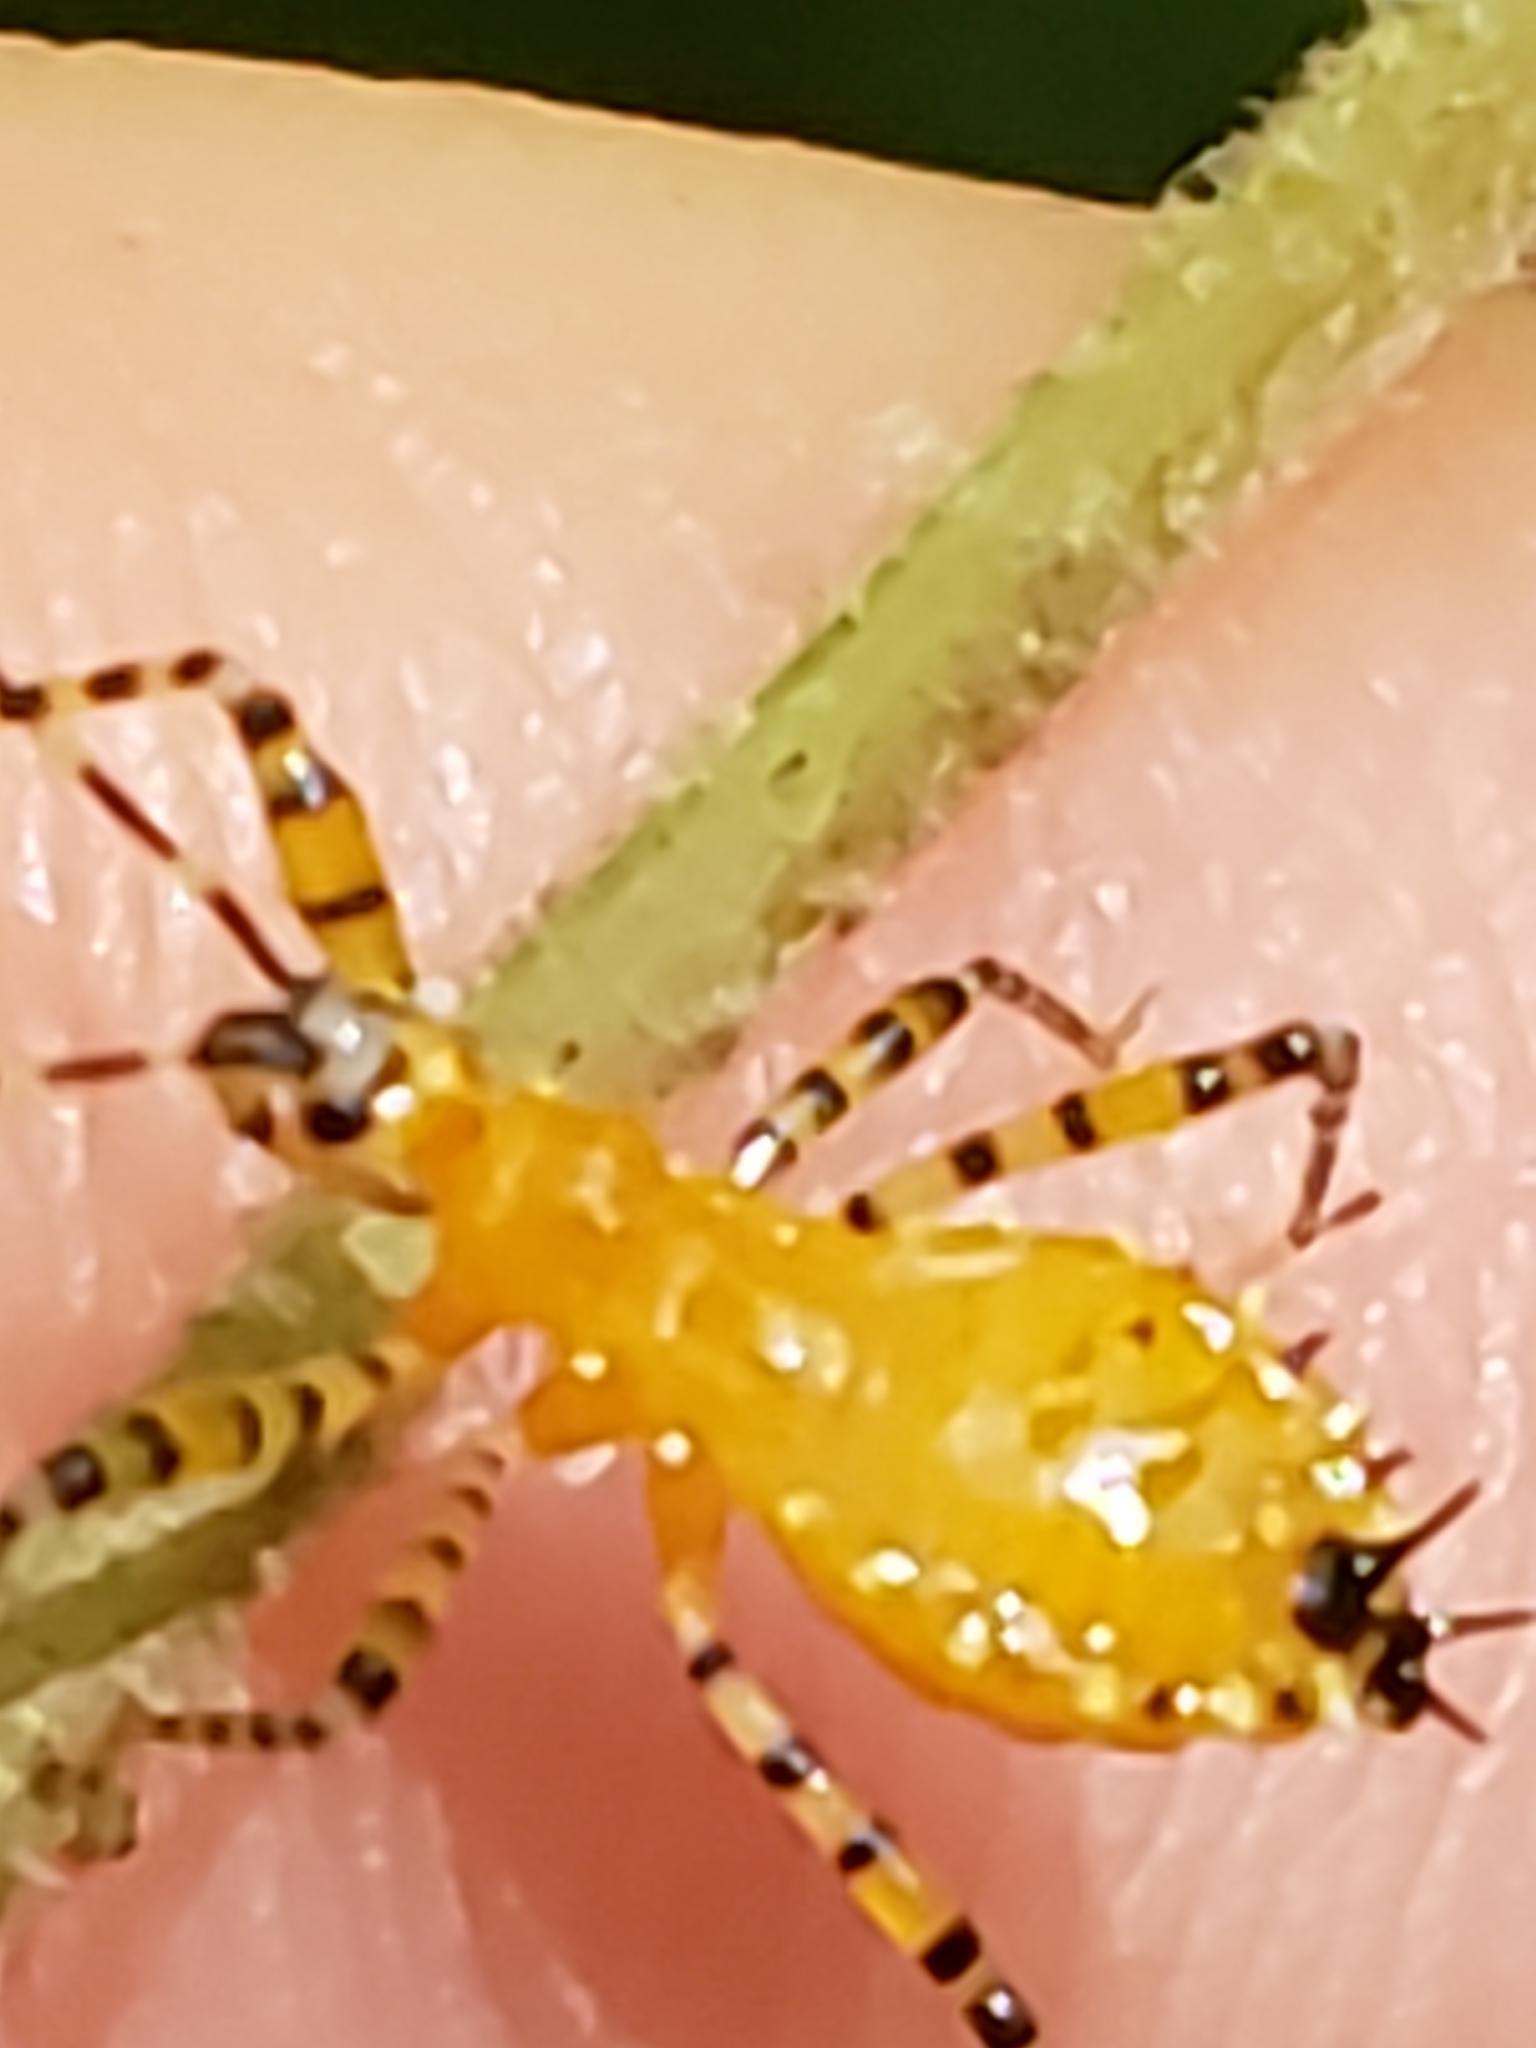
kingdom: Animalia
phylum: Arthropoda
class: Insecta
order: Hemiptera
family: Reduviidae
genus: Pselliopus
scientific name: Pselliopus barberi
